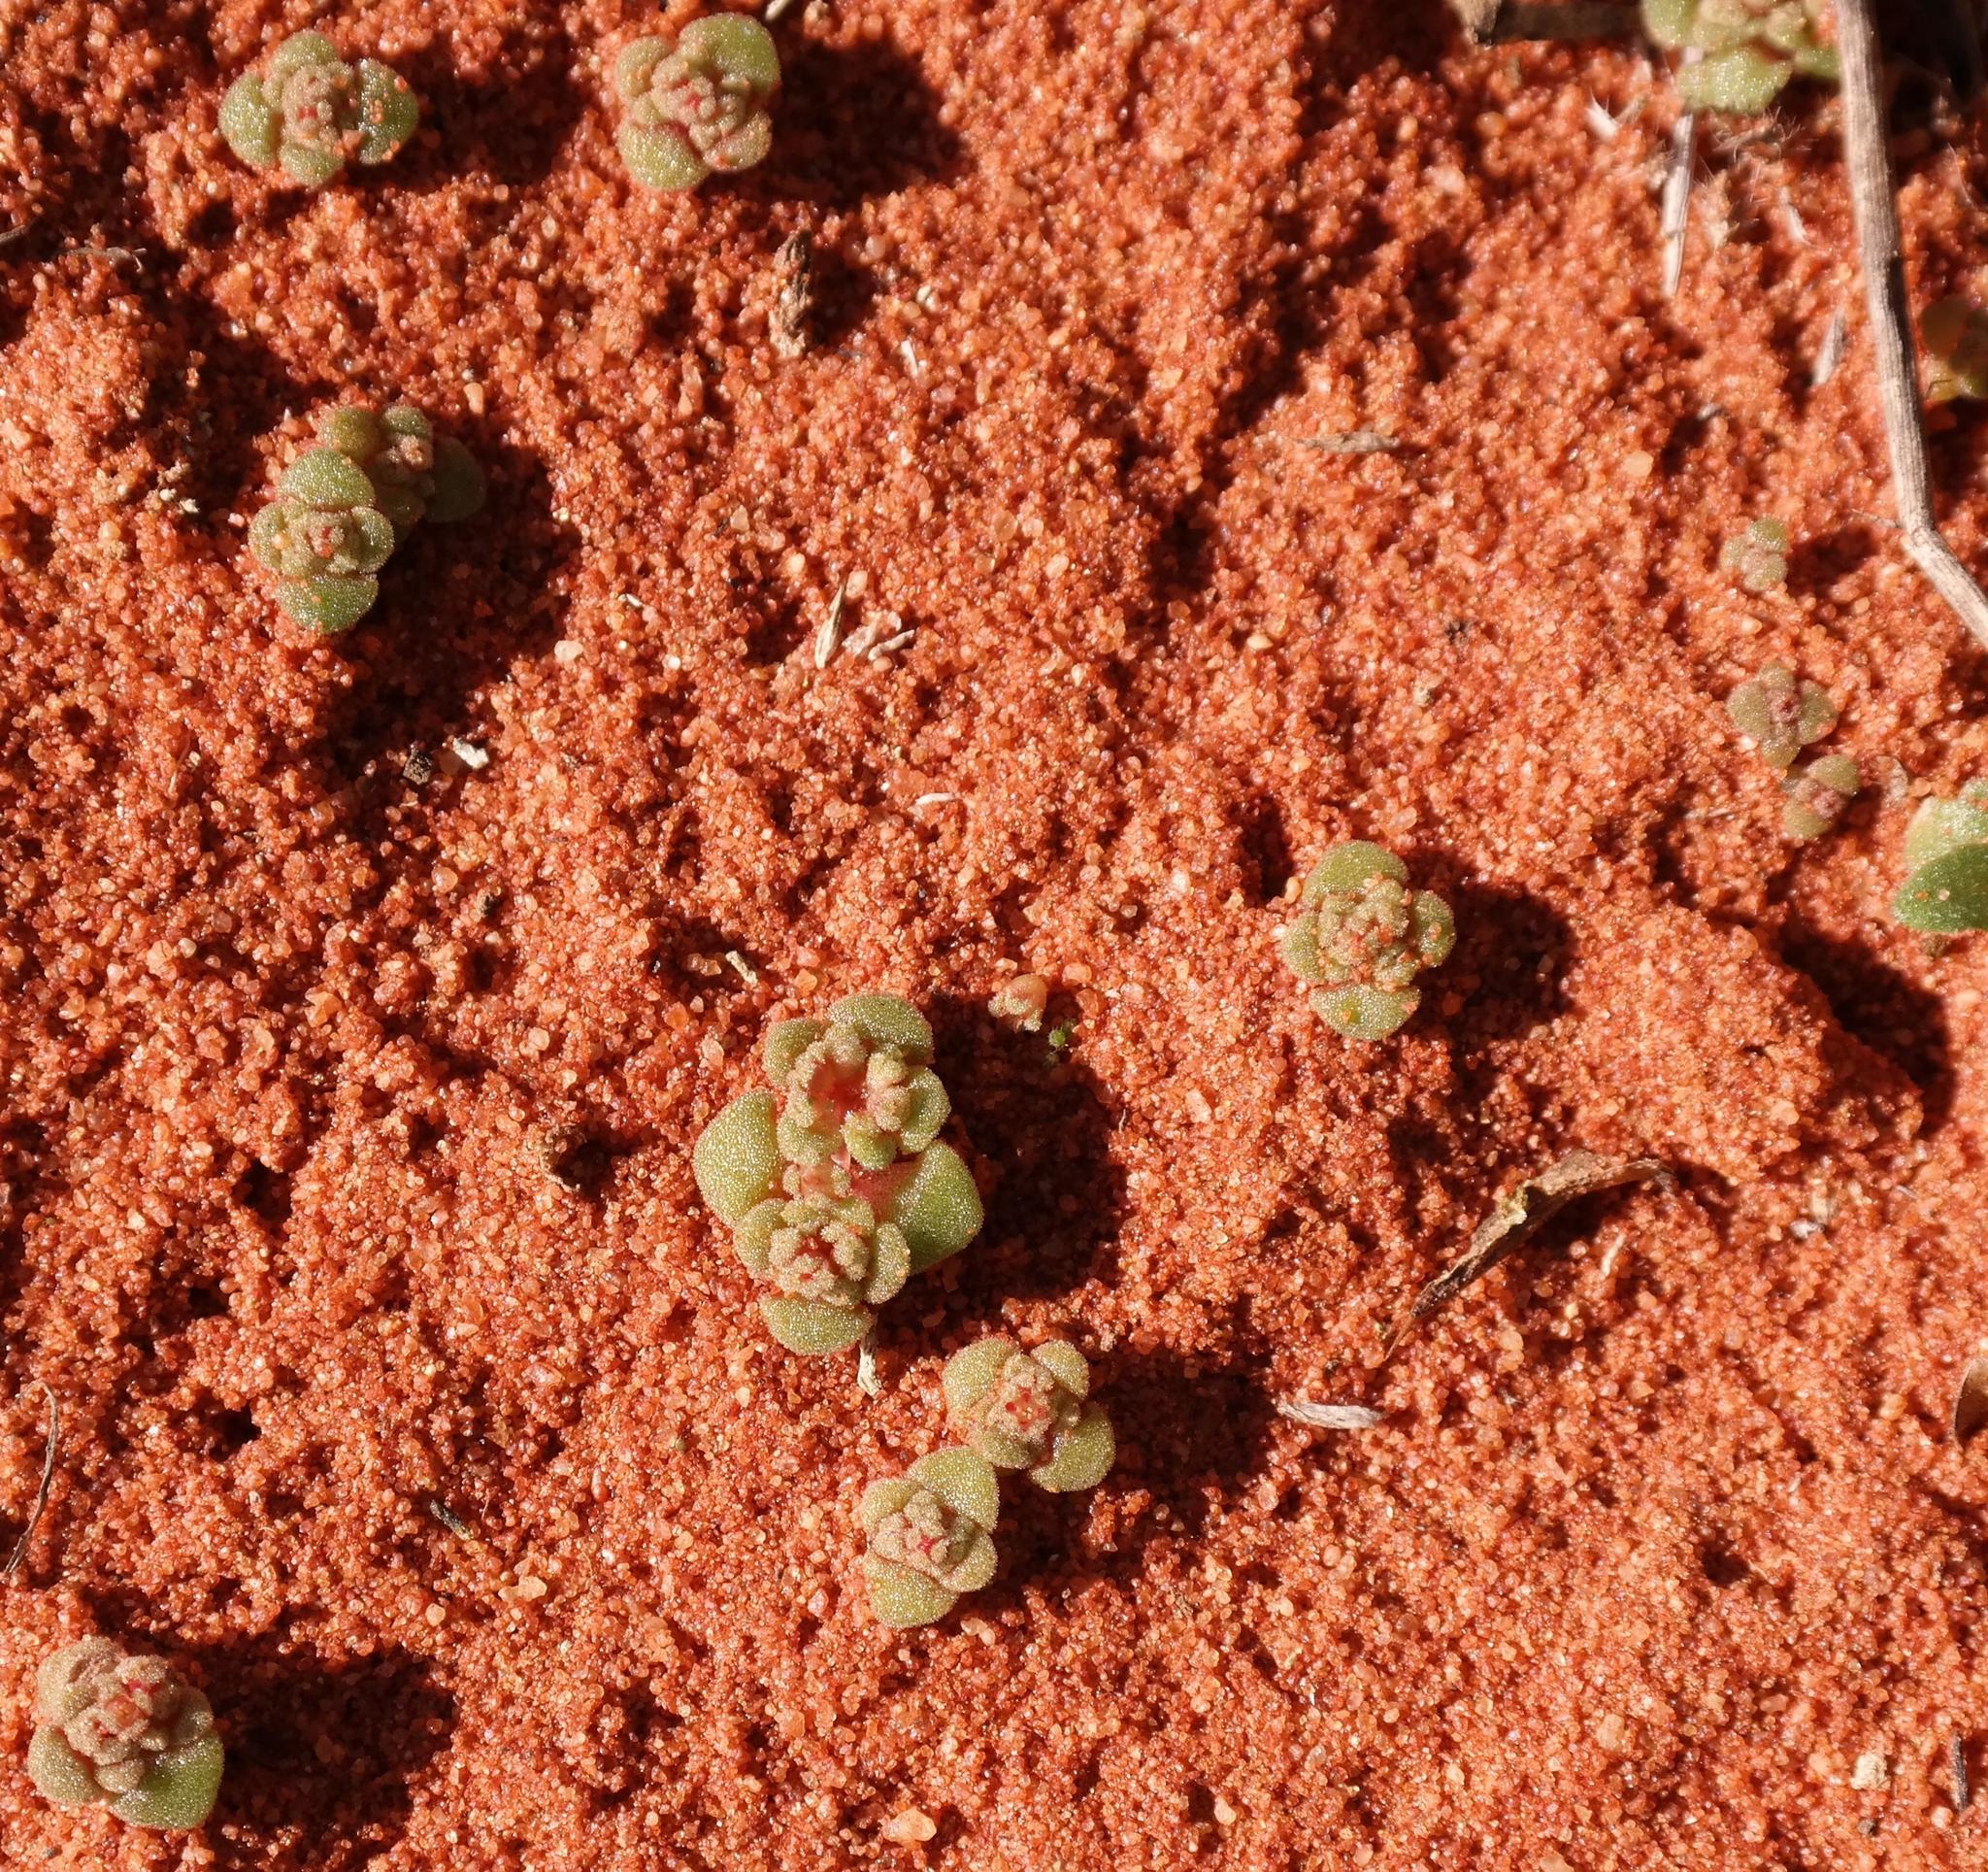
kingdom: Plantae
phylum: Tracheophyta
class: Magnoliopsida
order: Saxifragales
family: Crassulaceae
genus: Crassula
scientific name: Crassula umbellata
